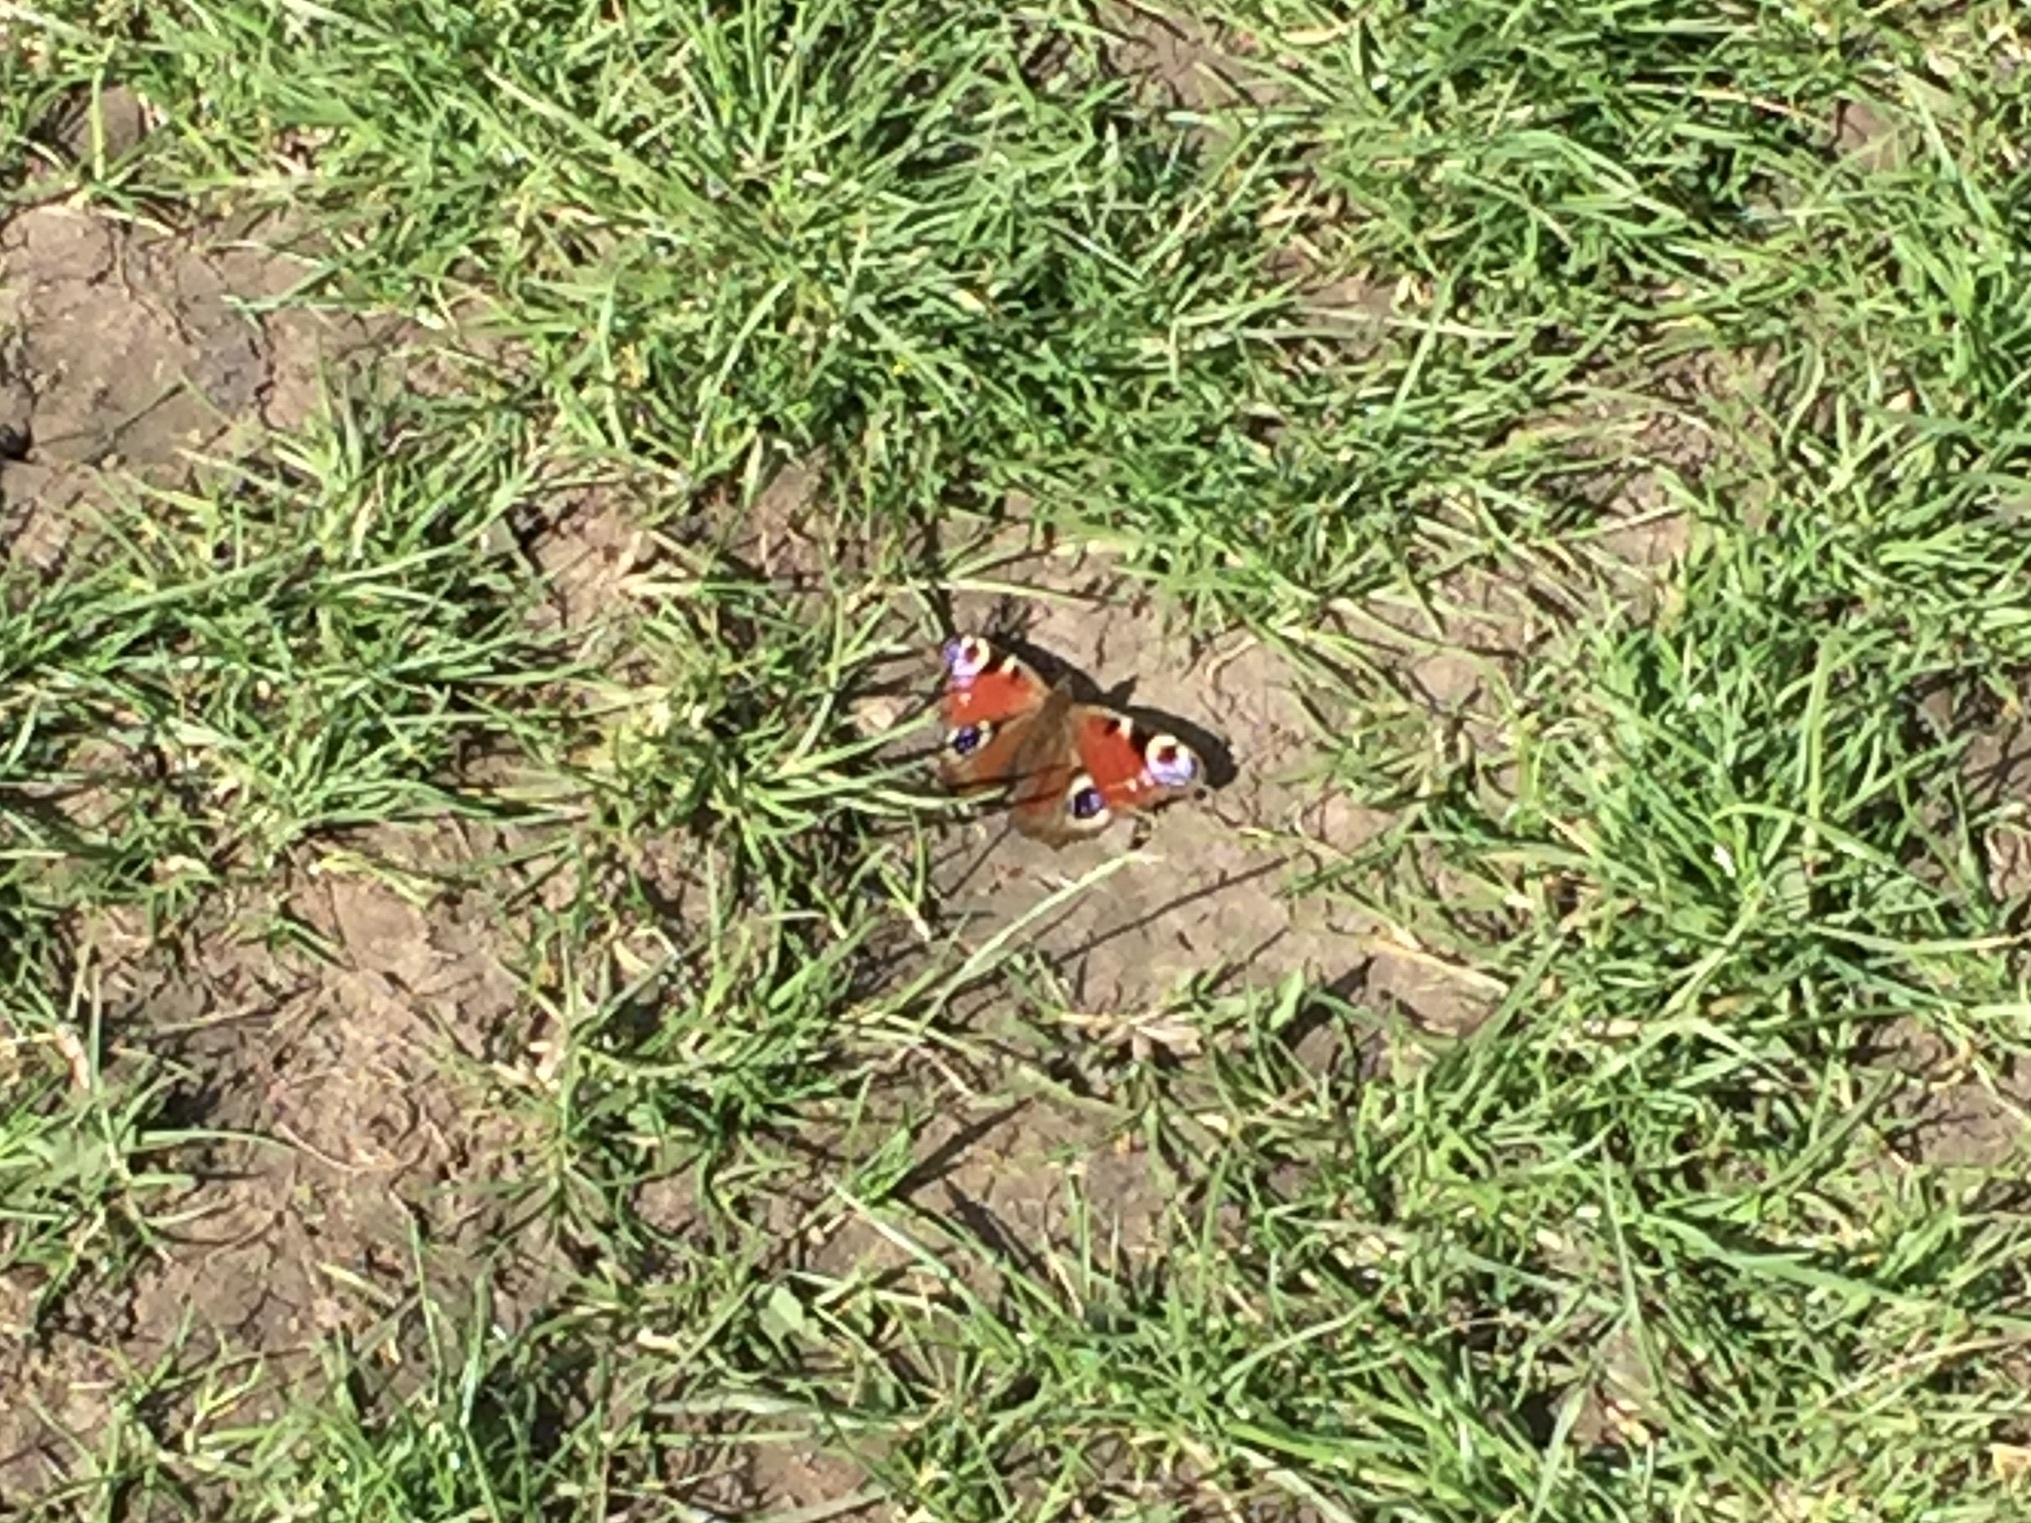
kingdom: Animalia
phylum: Arthropoda
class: Insecta
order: Lepidoptera
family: Nymphalidae
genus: Aglais
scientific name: Aglais io
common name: Peacock
